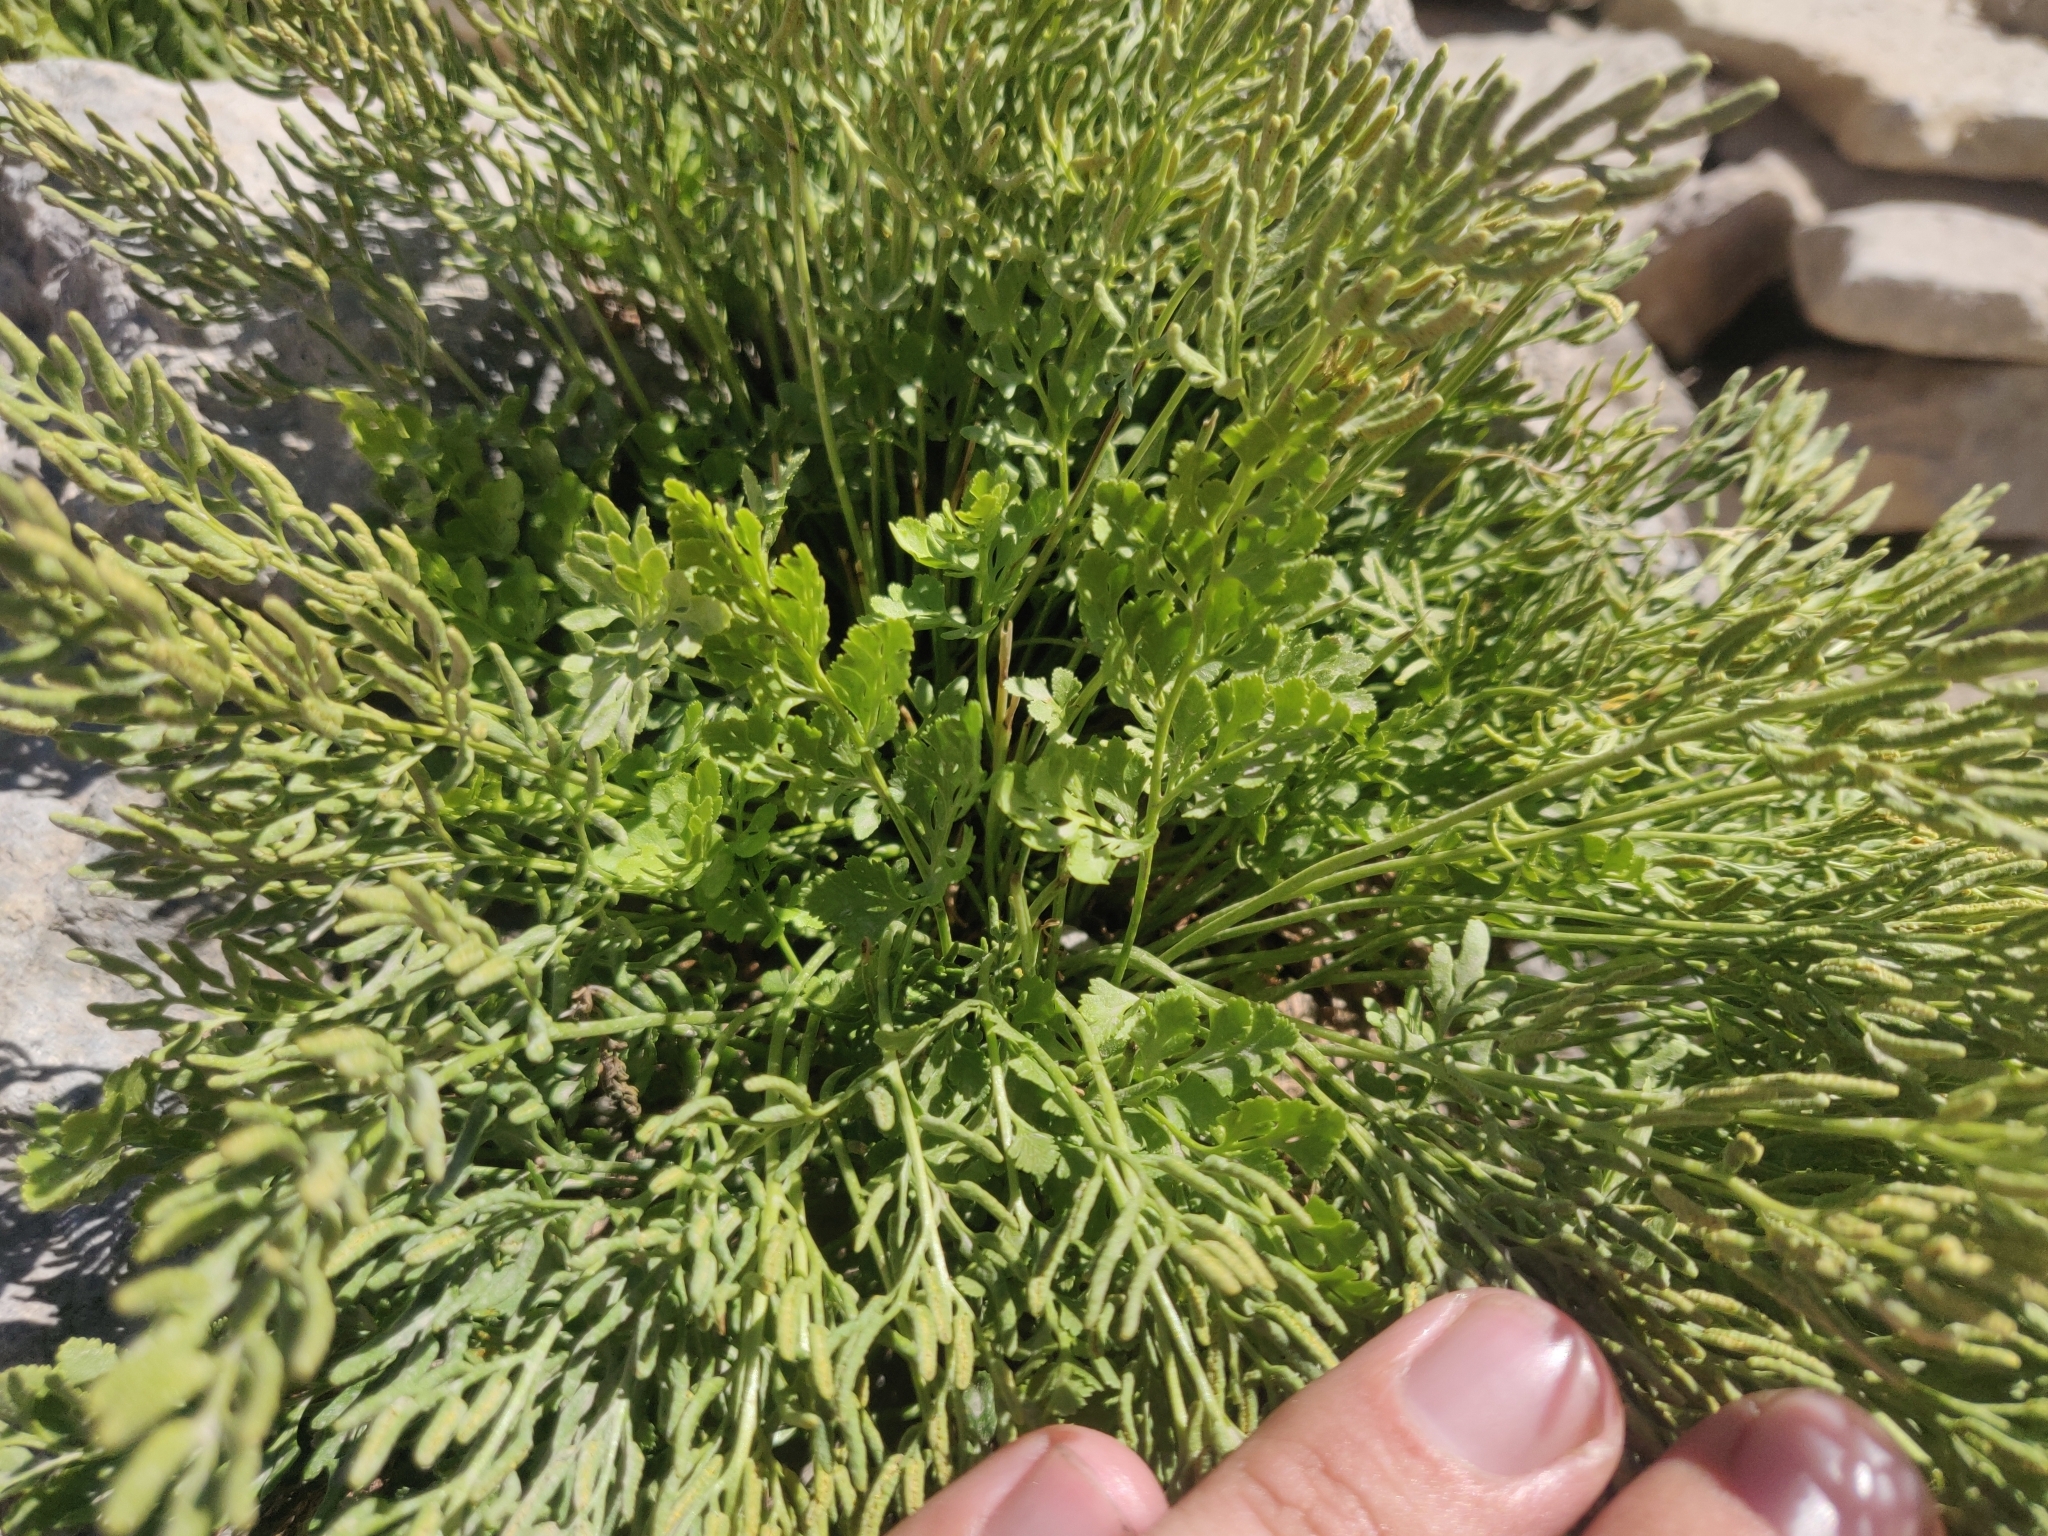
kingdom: Plantae
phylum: Tracheophyta
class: Polypodiopsida
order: Polypodiales
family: Pteridaceae
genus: Cryptogramma
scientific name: Cryptogramma cascadensis
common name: Cascade parsley fern
